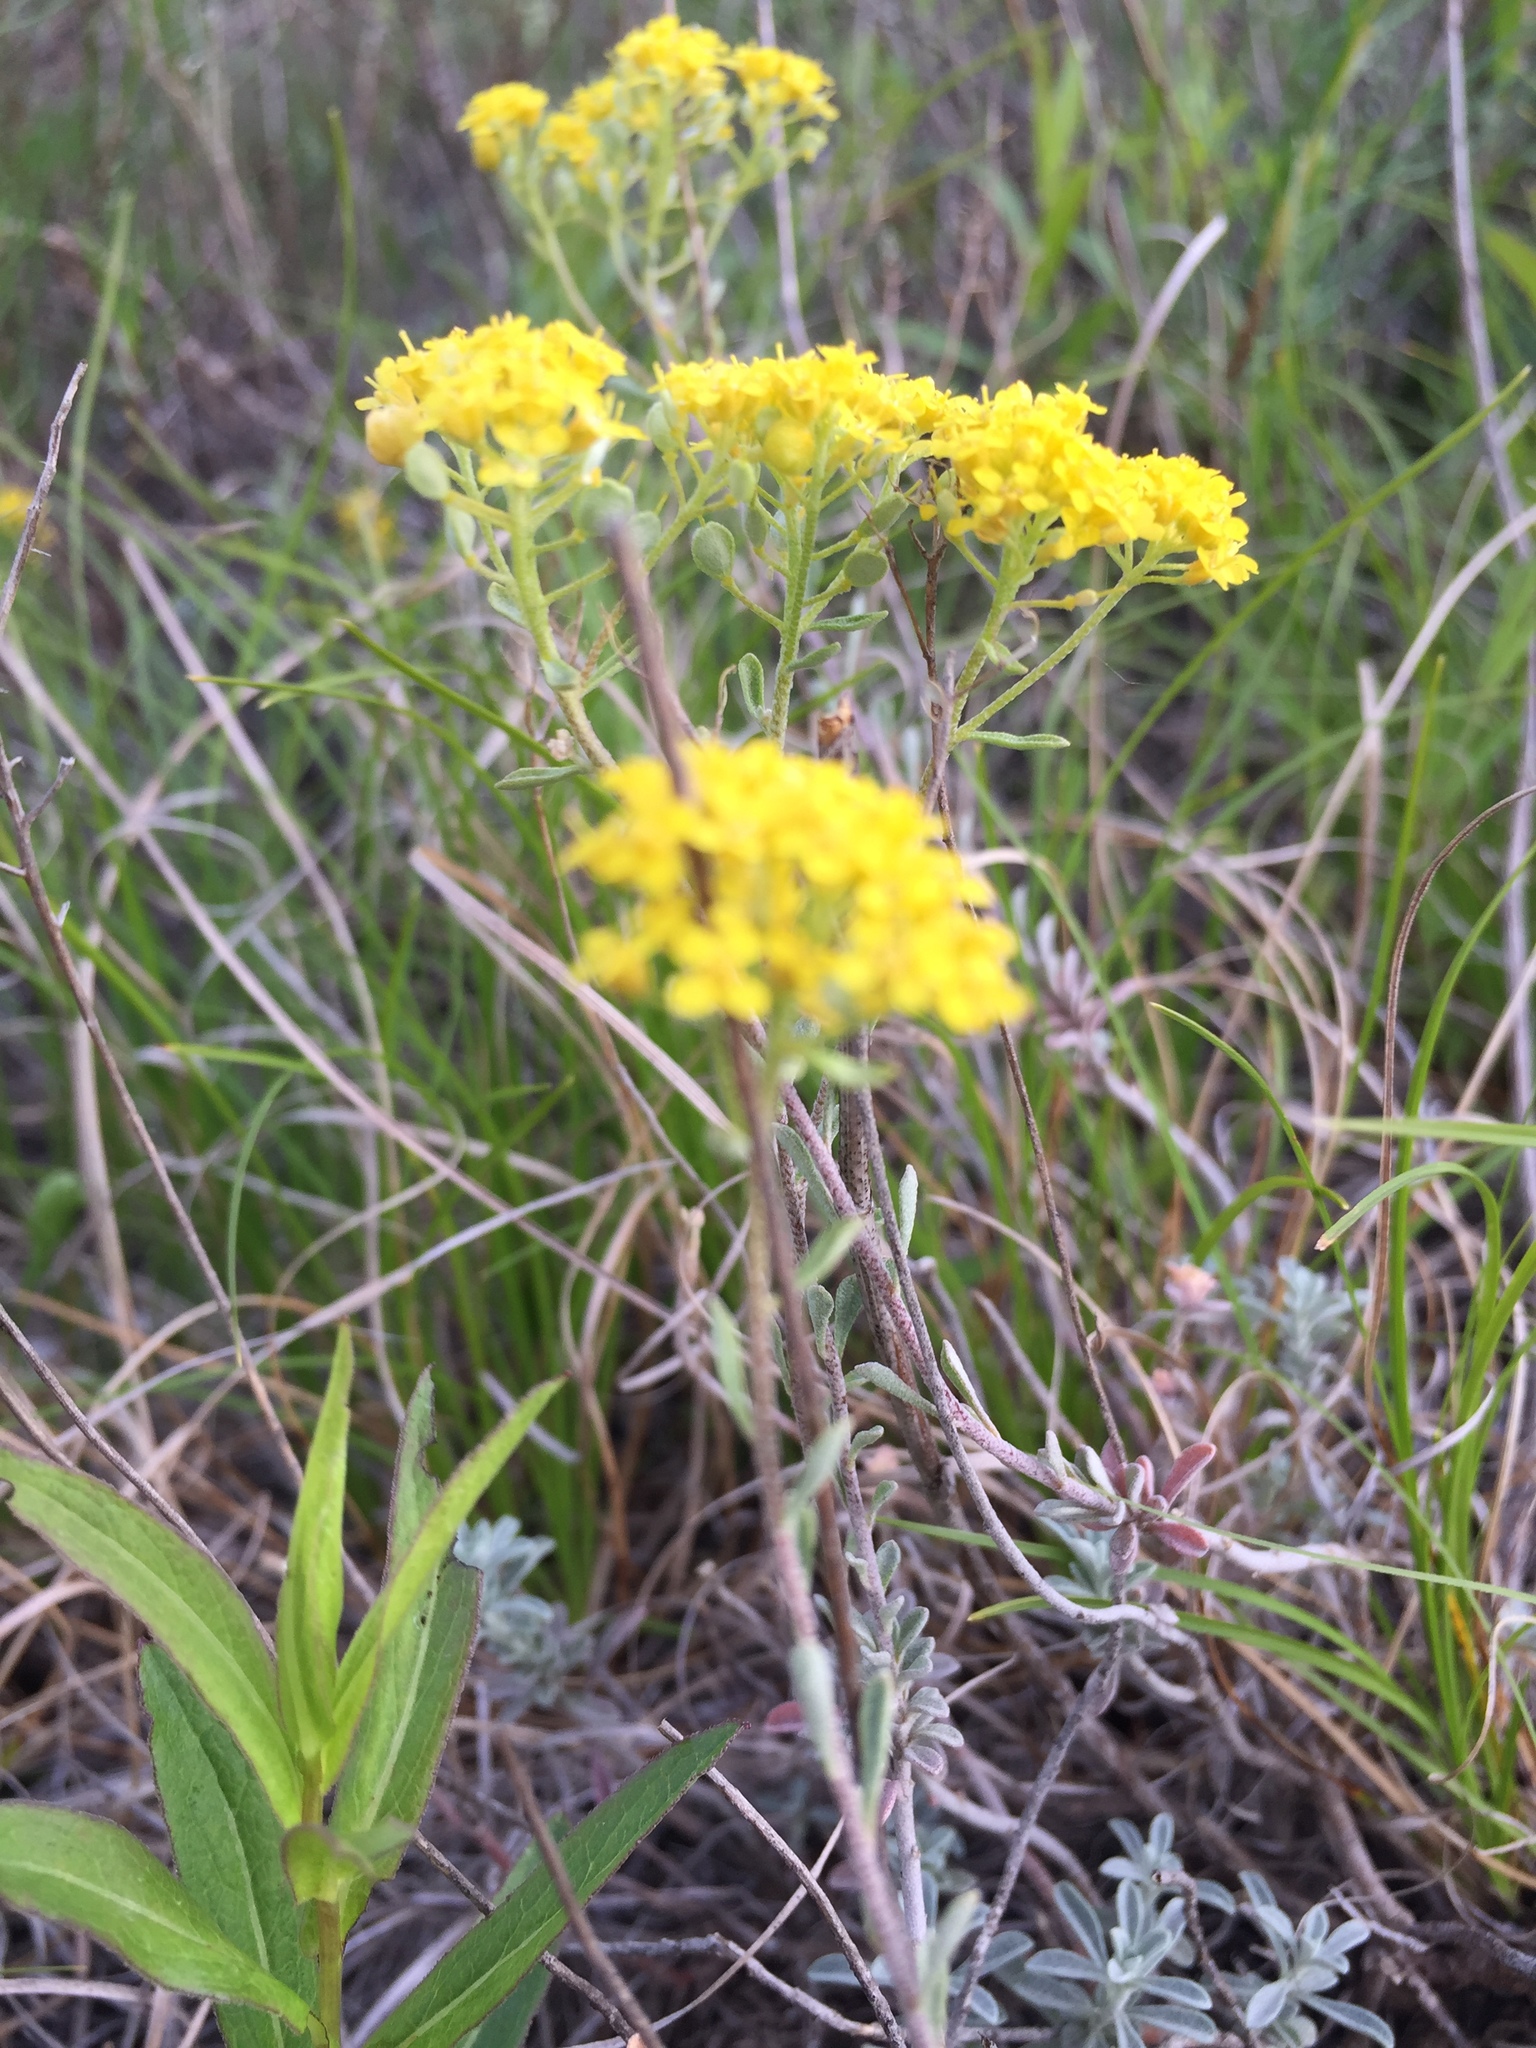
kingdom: Plantae
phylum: Tracheophyta
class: Magnoliopsida
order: Brassicales
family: Brassicaceae
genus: Odontarrhena
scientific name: Odontarrhena tortuosa
